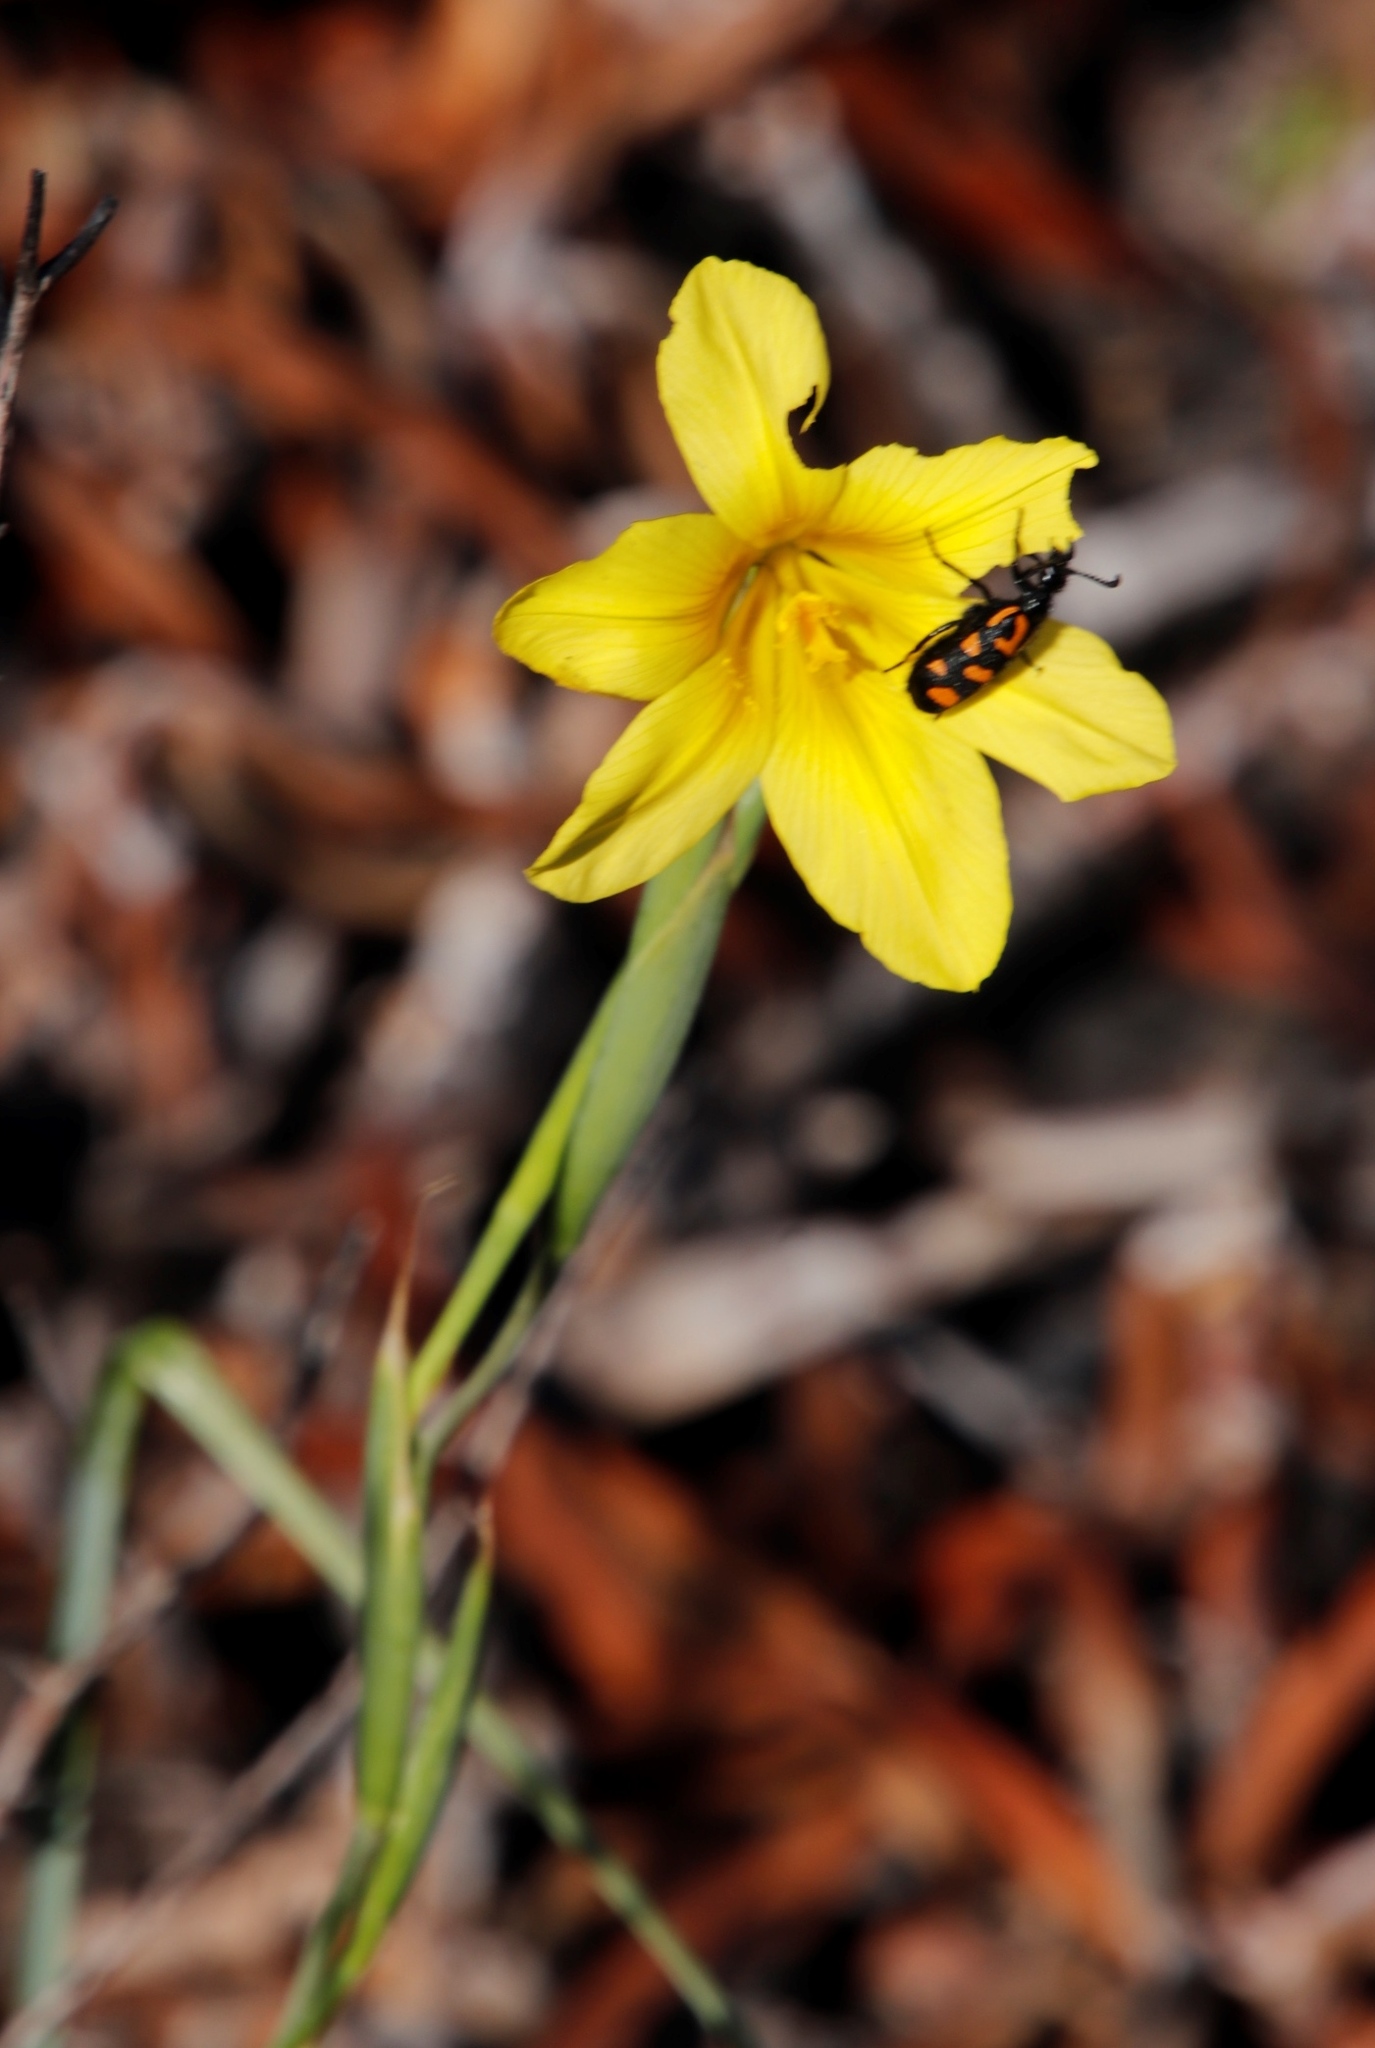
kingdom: Plantae
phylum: Tracheophyta
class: Liliopsida
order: Asparagales
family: Iridaceae
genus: Moraea
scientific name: Moraea ochroleuca
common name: Red tulp
